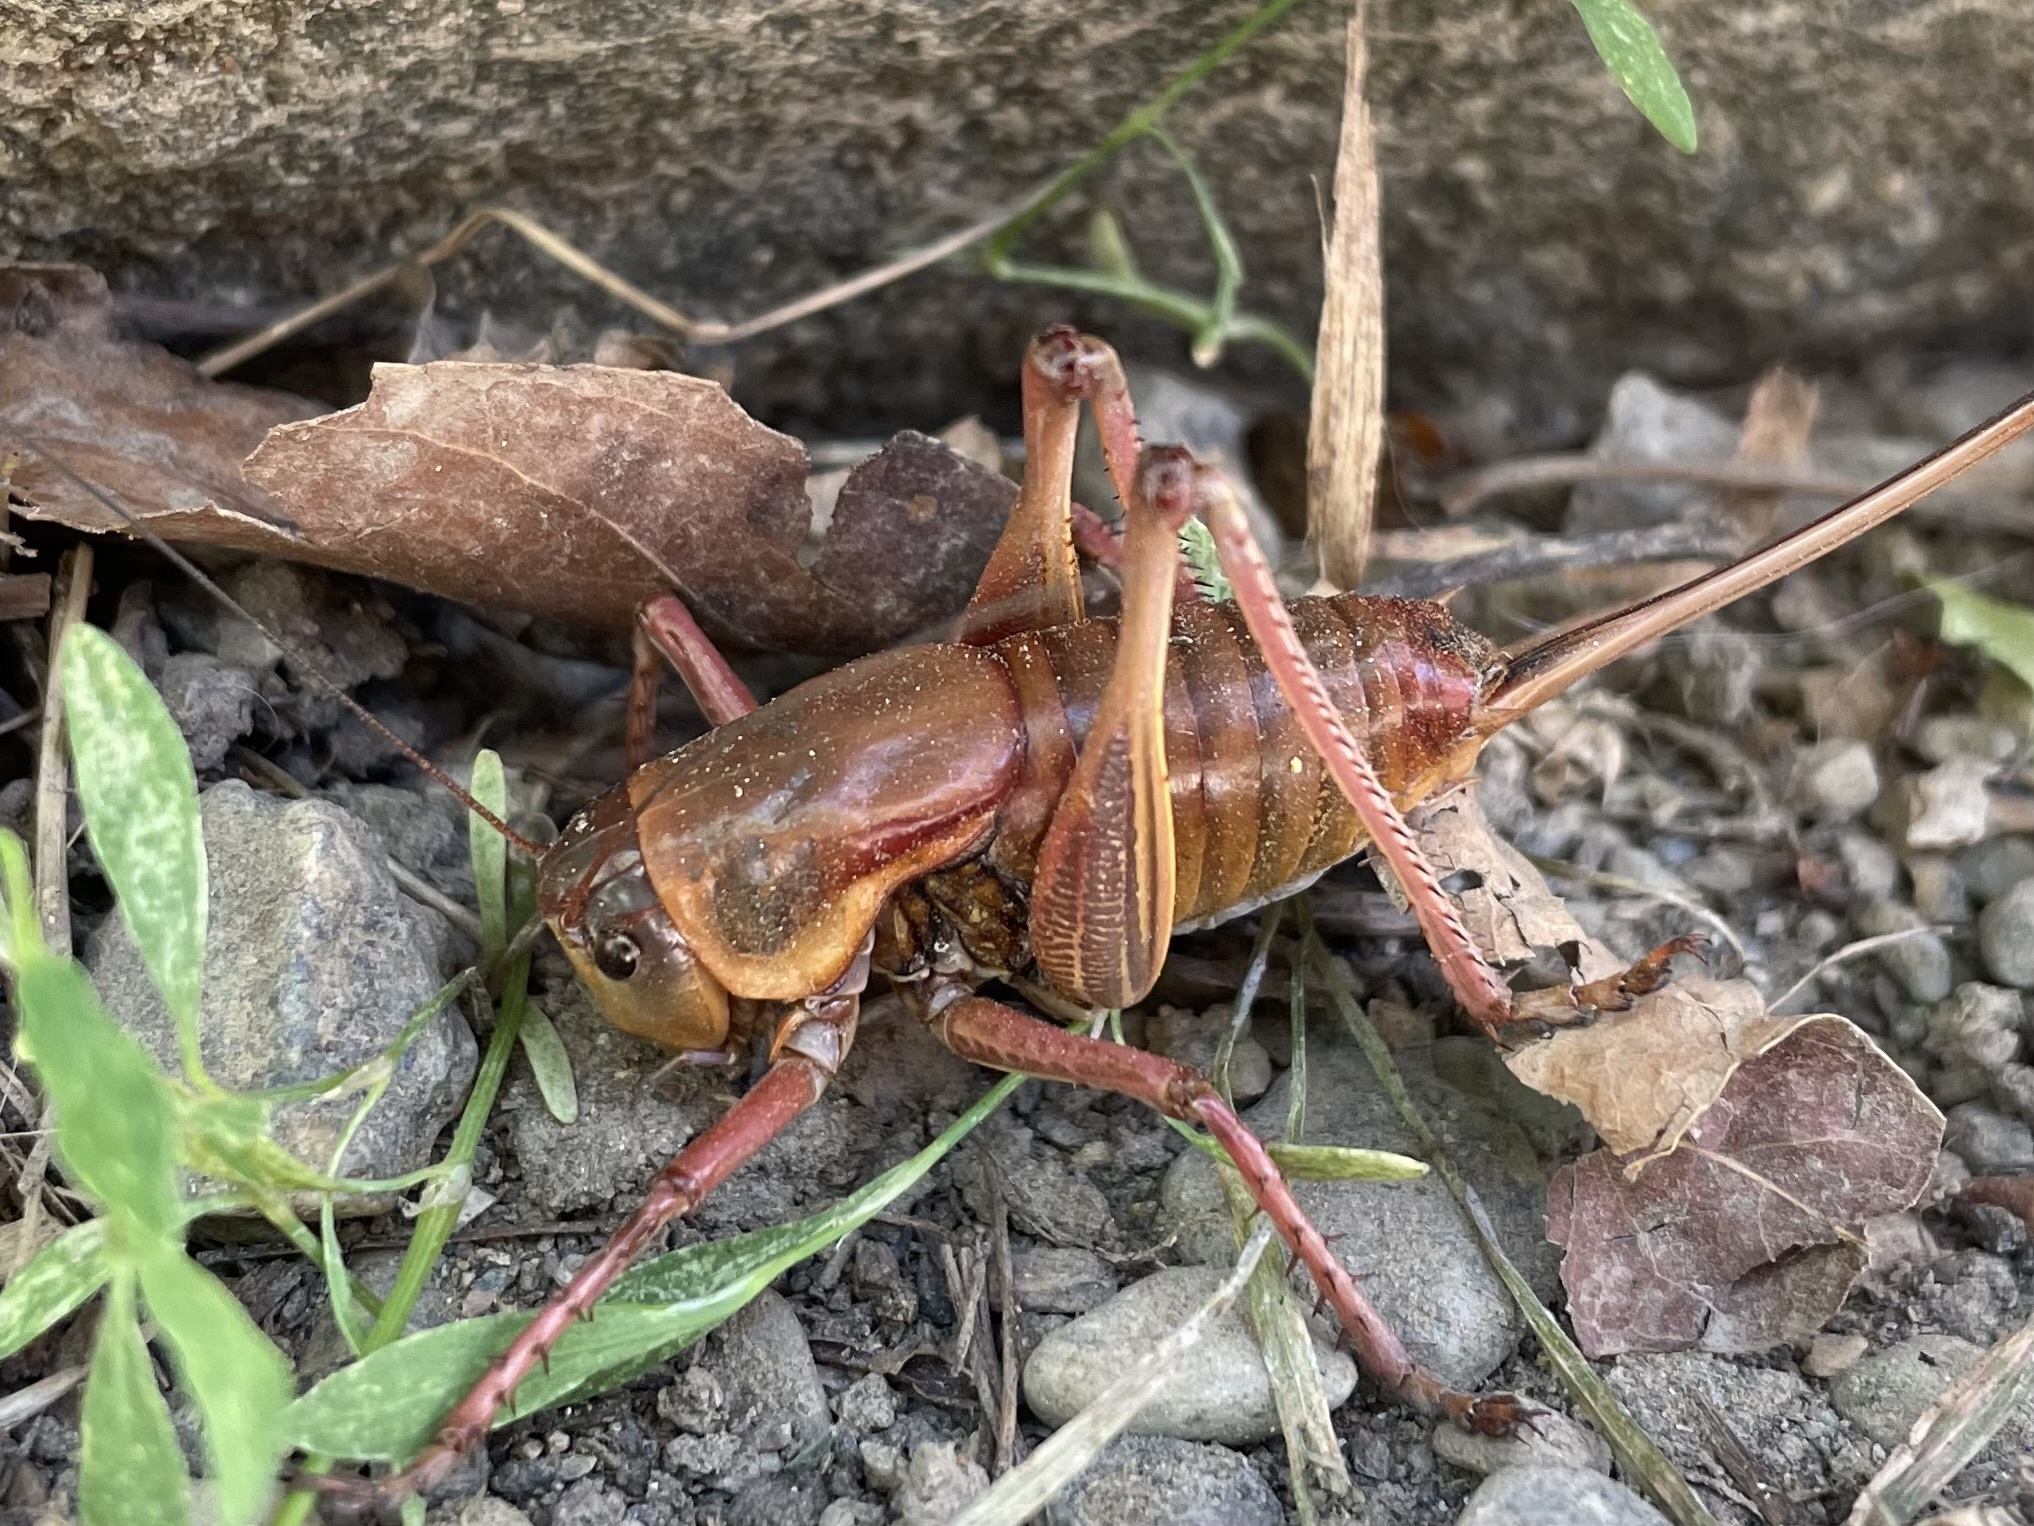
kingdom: Animalia
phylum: Arthropoda
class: Insecta
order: Orthoptera
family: Tettigoniidae
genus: Anabrus
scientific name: Anabrus simplex
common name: Mormon cricket
